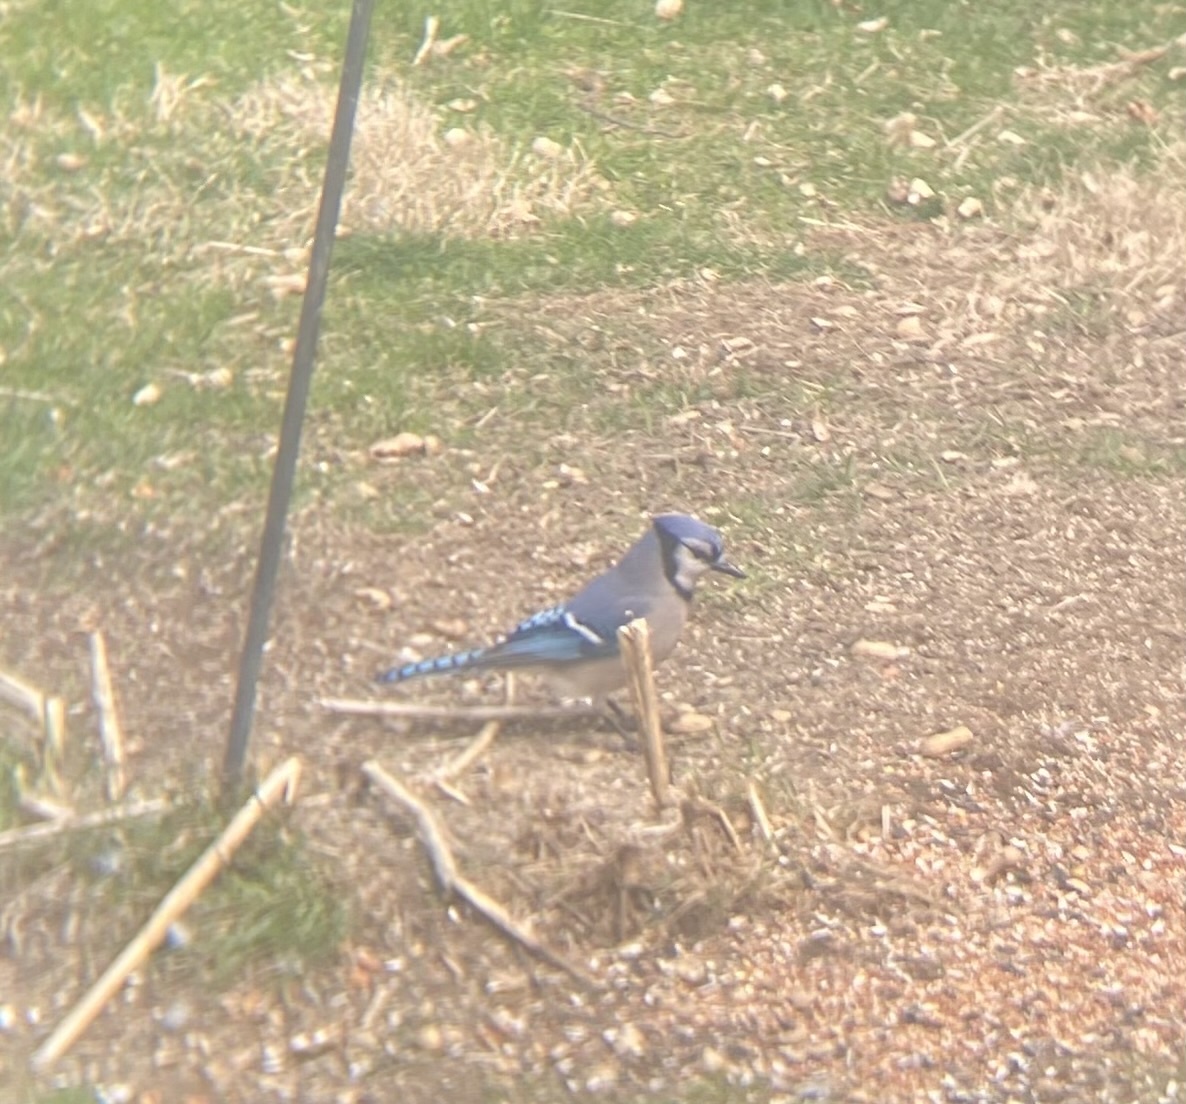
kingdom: Animalia
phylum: Chordata
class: Aves
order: Passeriformes
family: Corvidae
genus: Cyanocitta
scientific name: Cyanocitta cristata
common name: Blue jay
